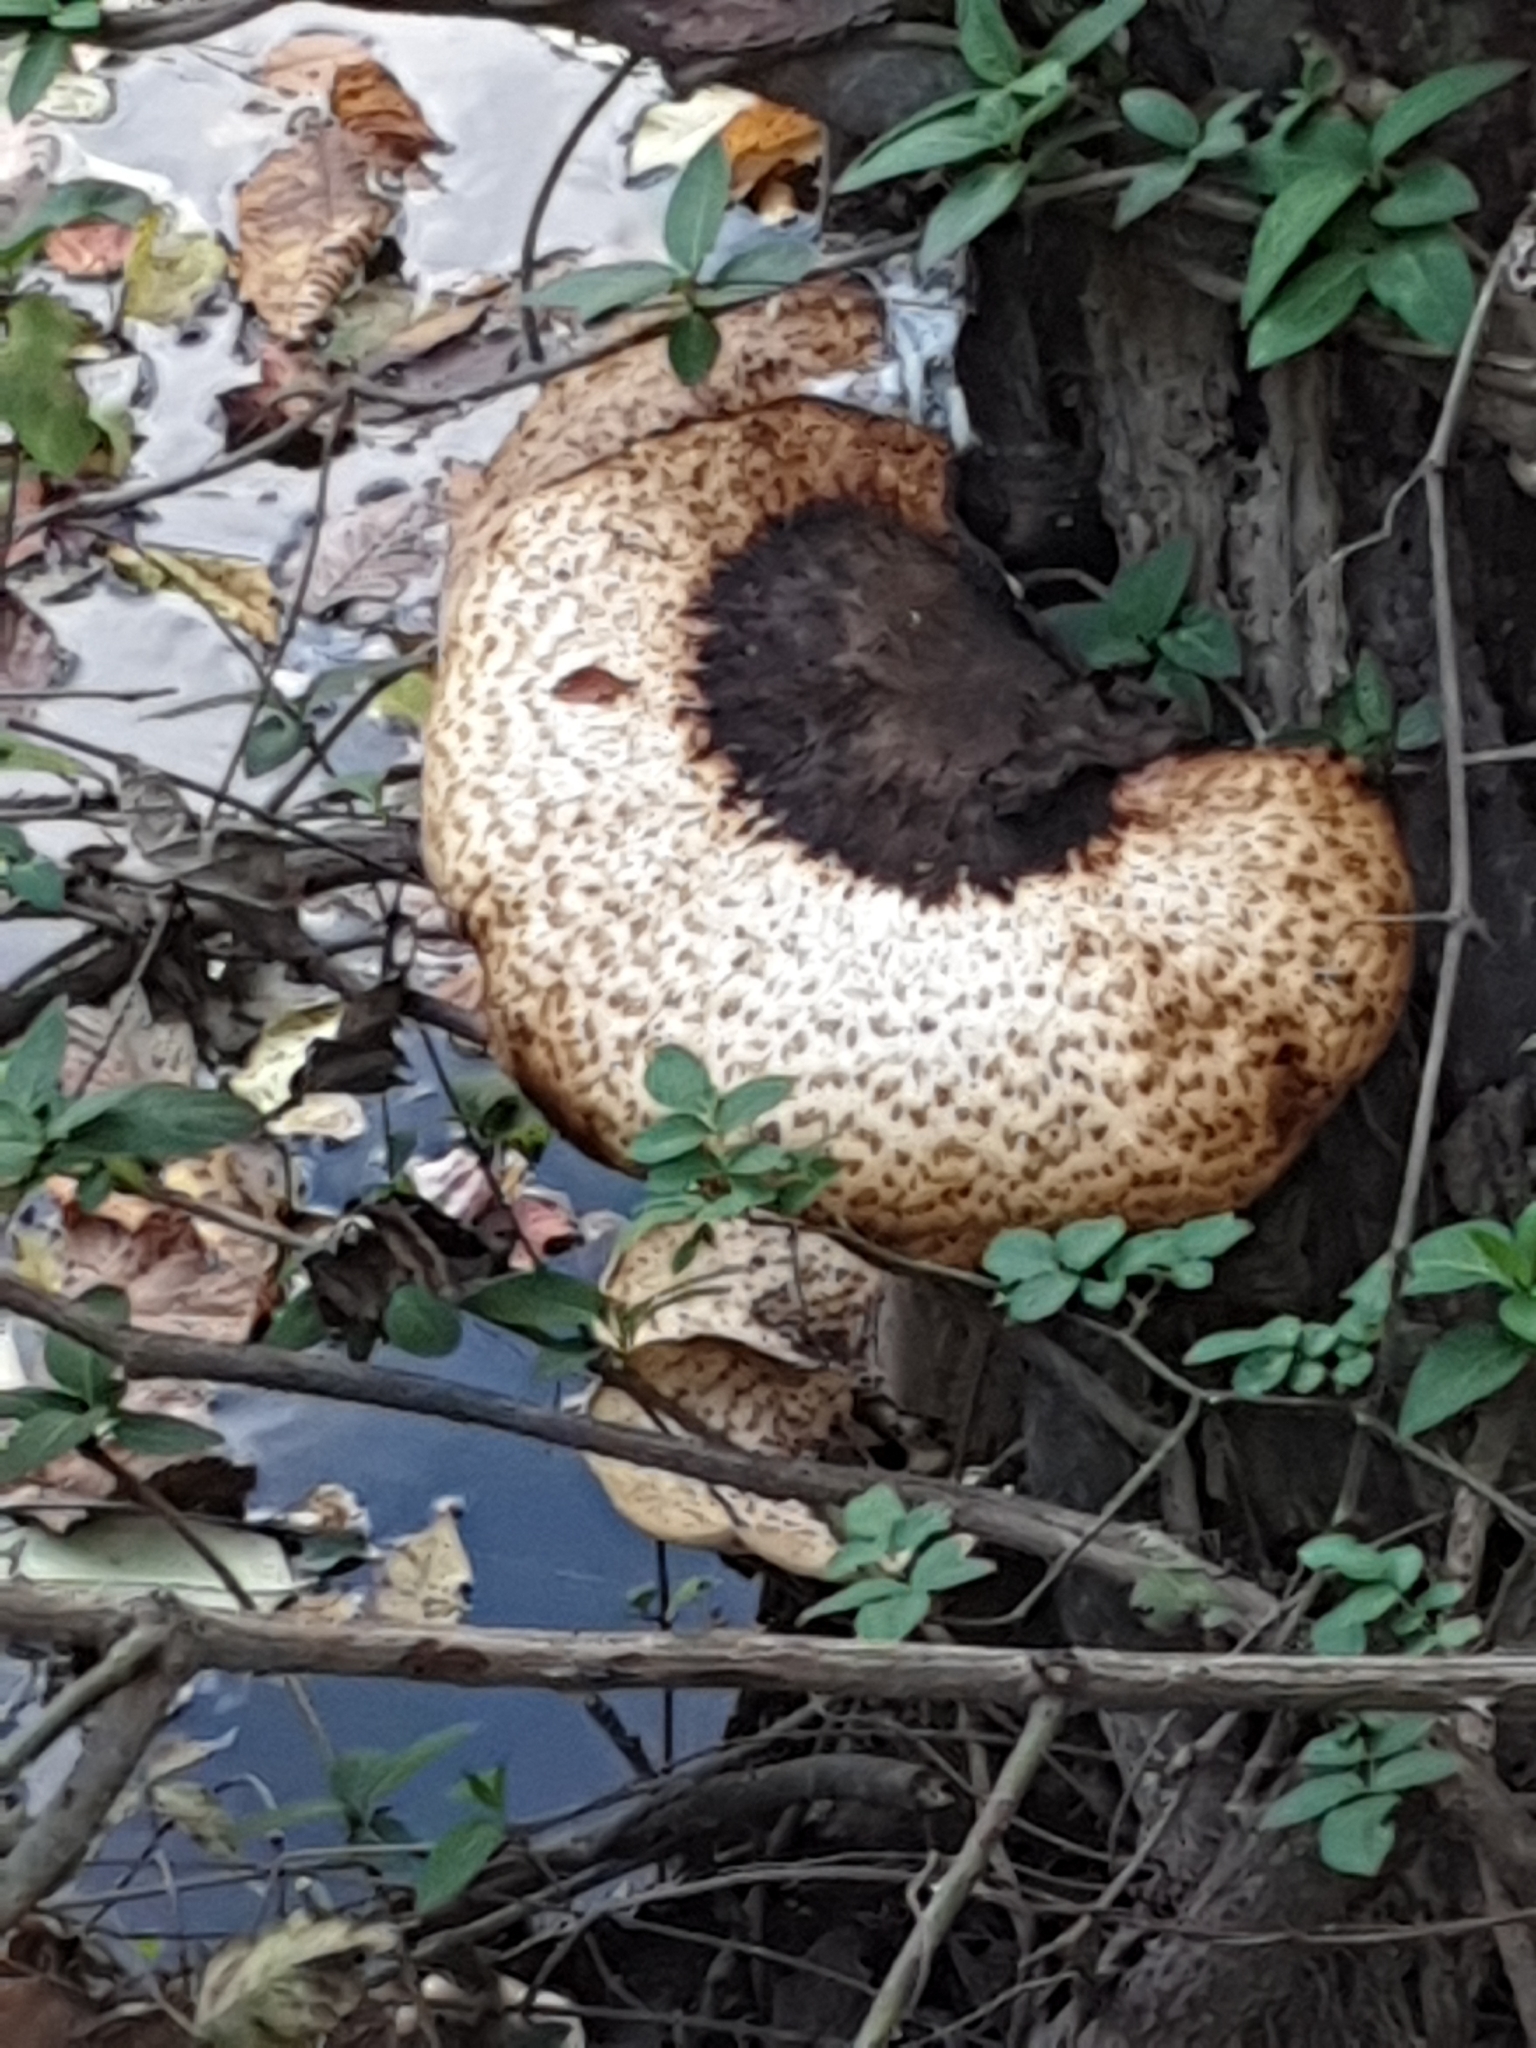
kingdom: Fungi
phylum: Basidiomycota
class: Agaricomycetes
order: Polyporales
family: Polyporaceae
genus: Cerioporus
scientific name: Cerioporus squamosus
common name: Dryad's saddle
